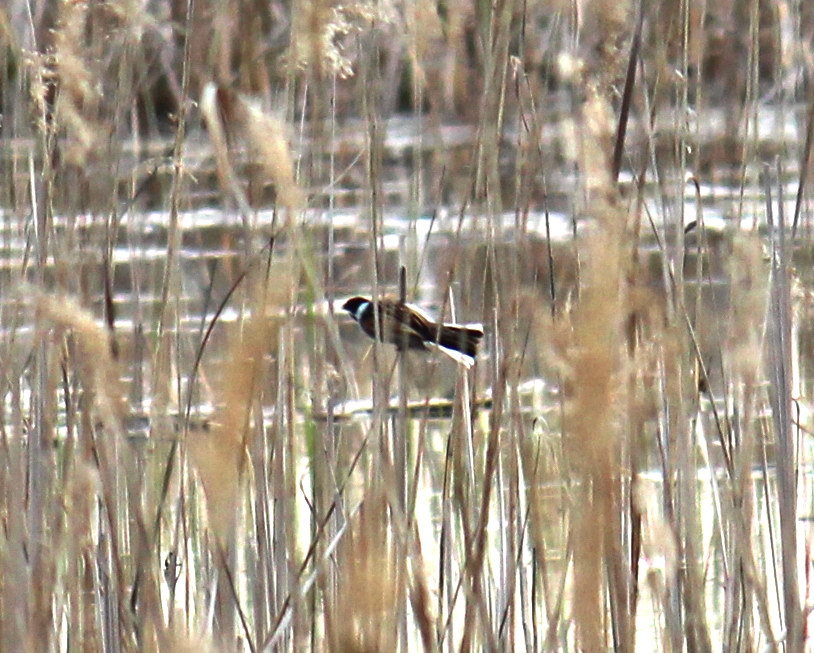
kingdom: Animalia
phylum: Chordata
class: Aves
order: Passeriformes
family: Emberizidae
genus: Emberiza
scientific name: Emberiza schoeniclus
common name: Reed bunting
